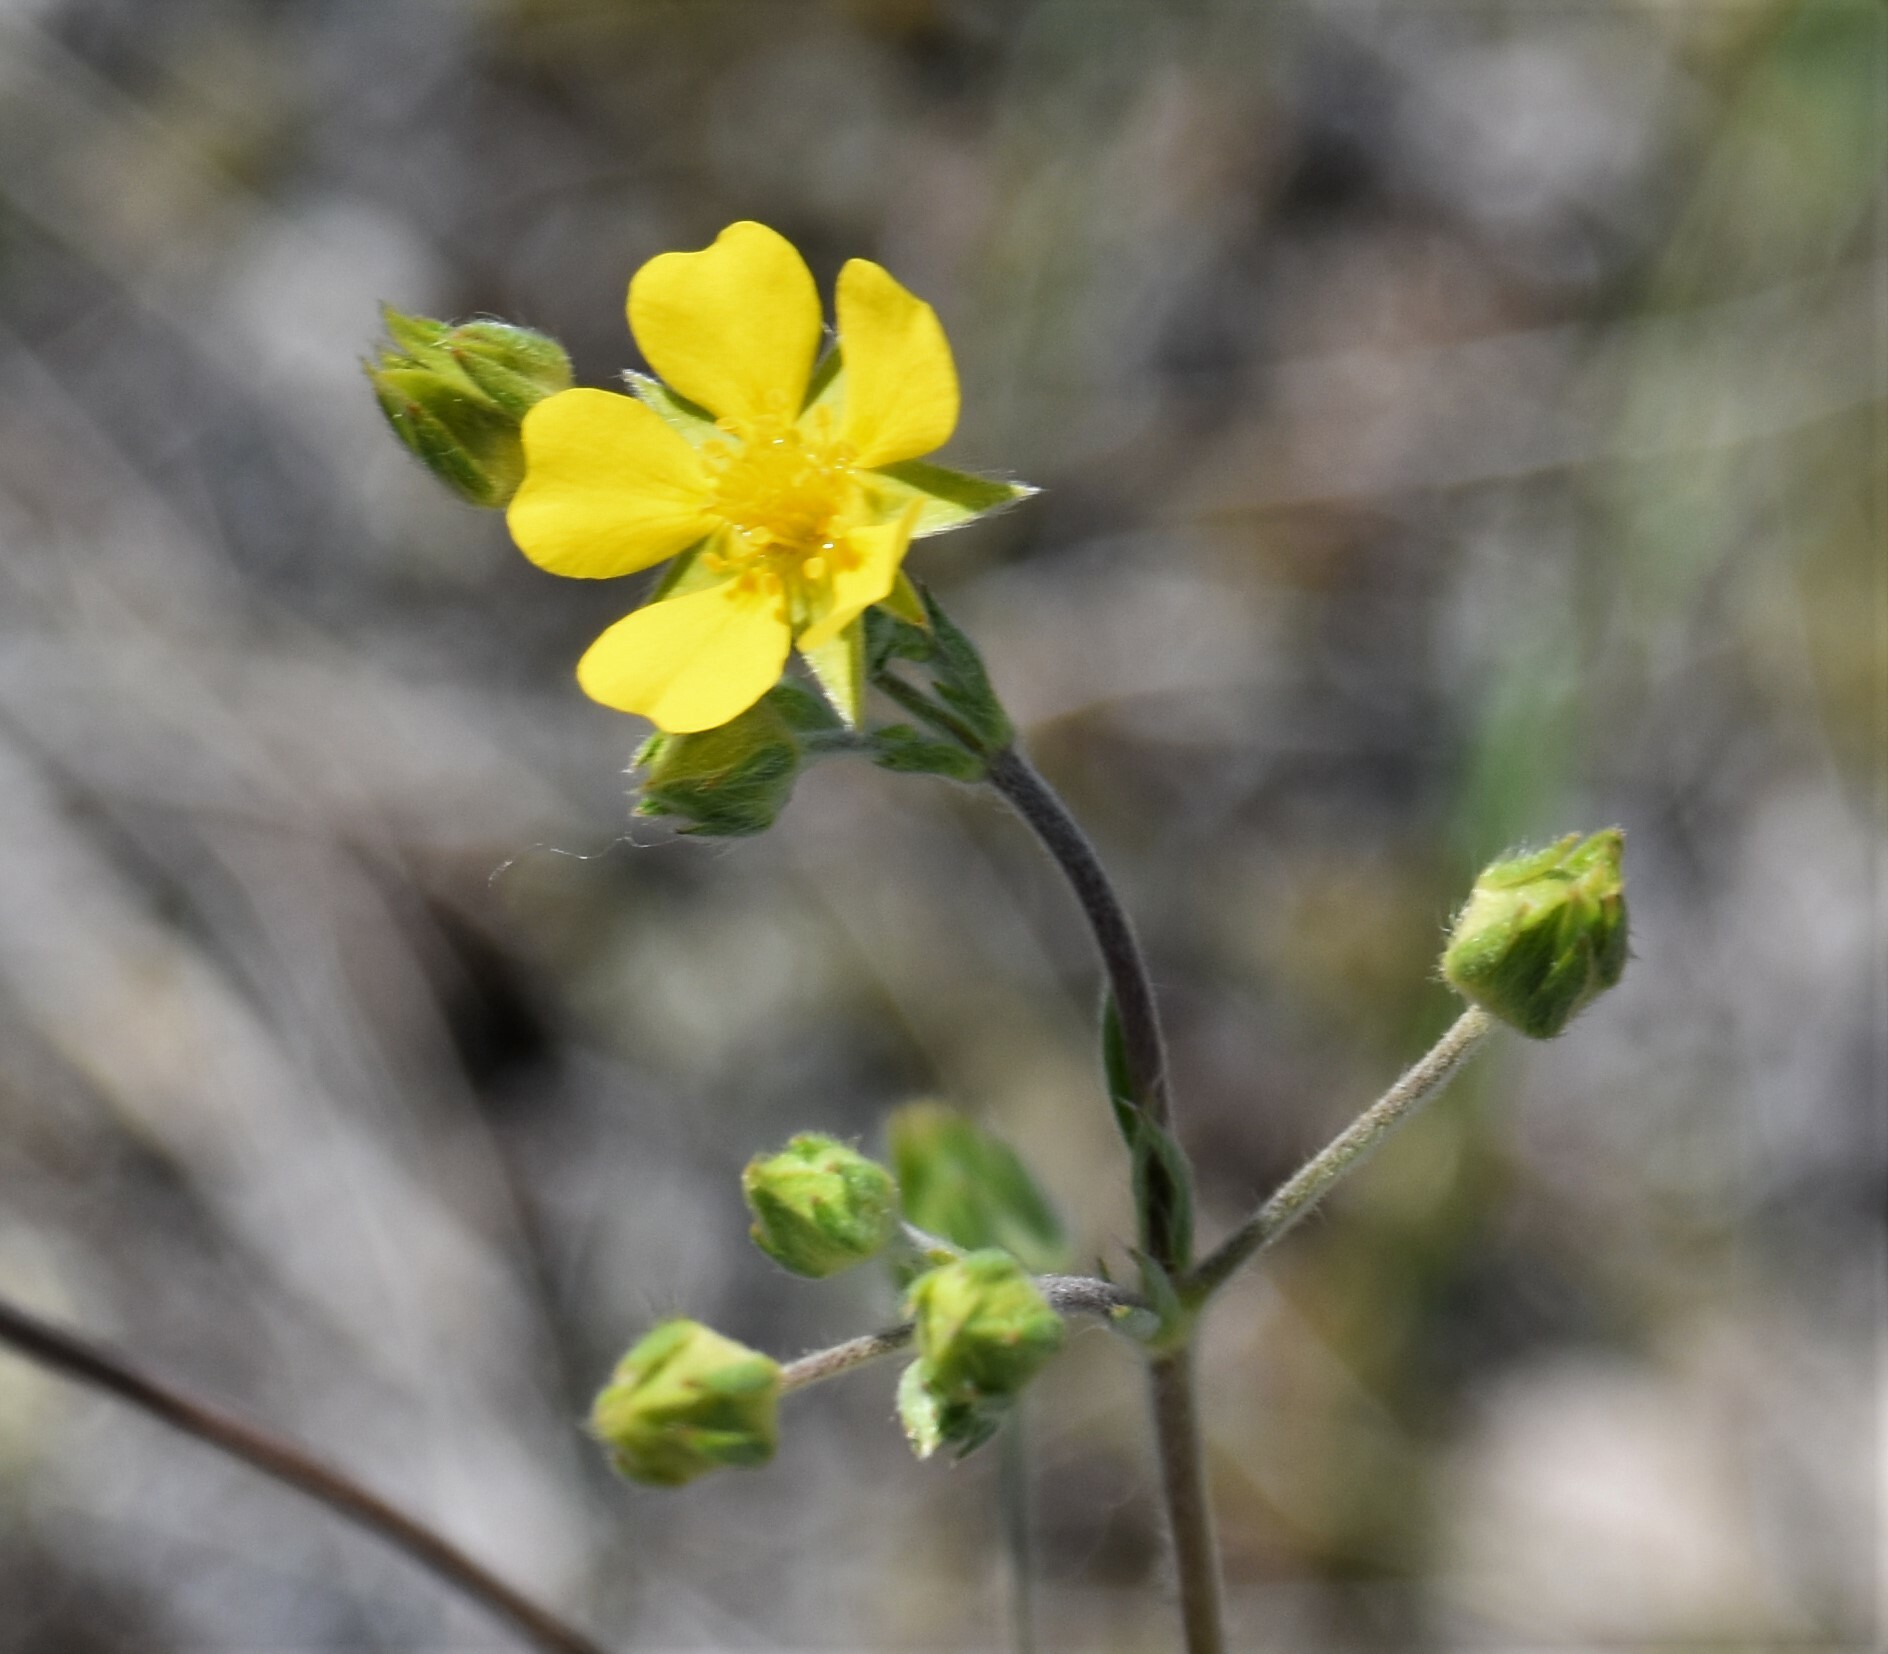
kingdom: Plantae
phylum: Tracheophyta
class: Magnoliopsida
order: Rosales
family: Rosaceae
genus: Potentilla
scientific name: Potentilla hippiana
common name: Woolly cinquefoil
